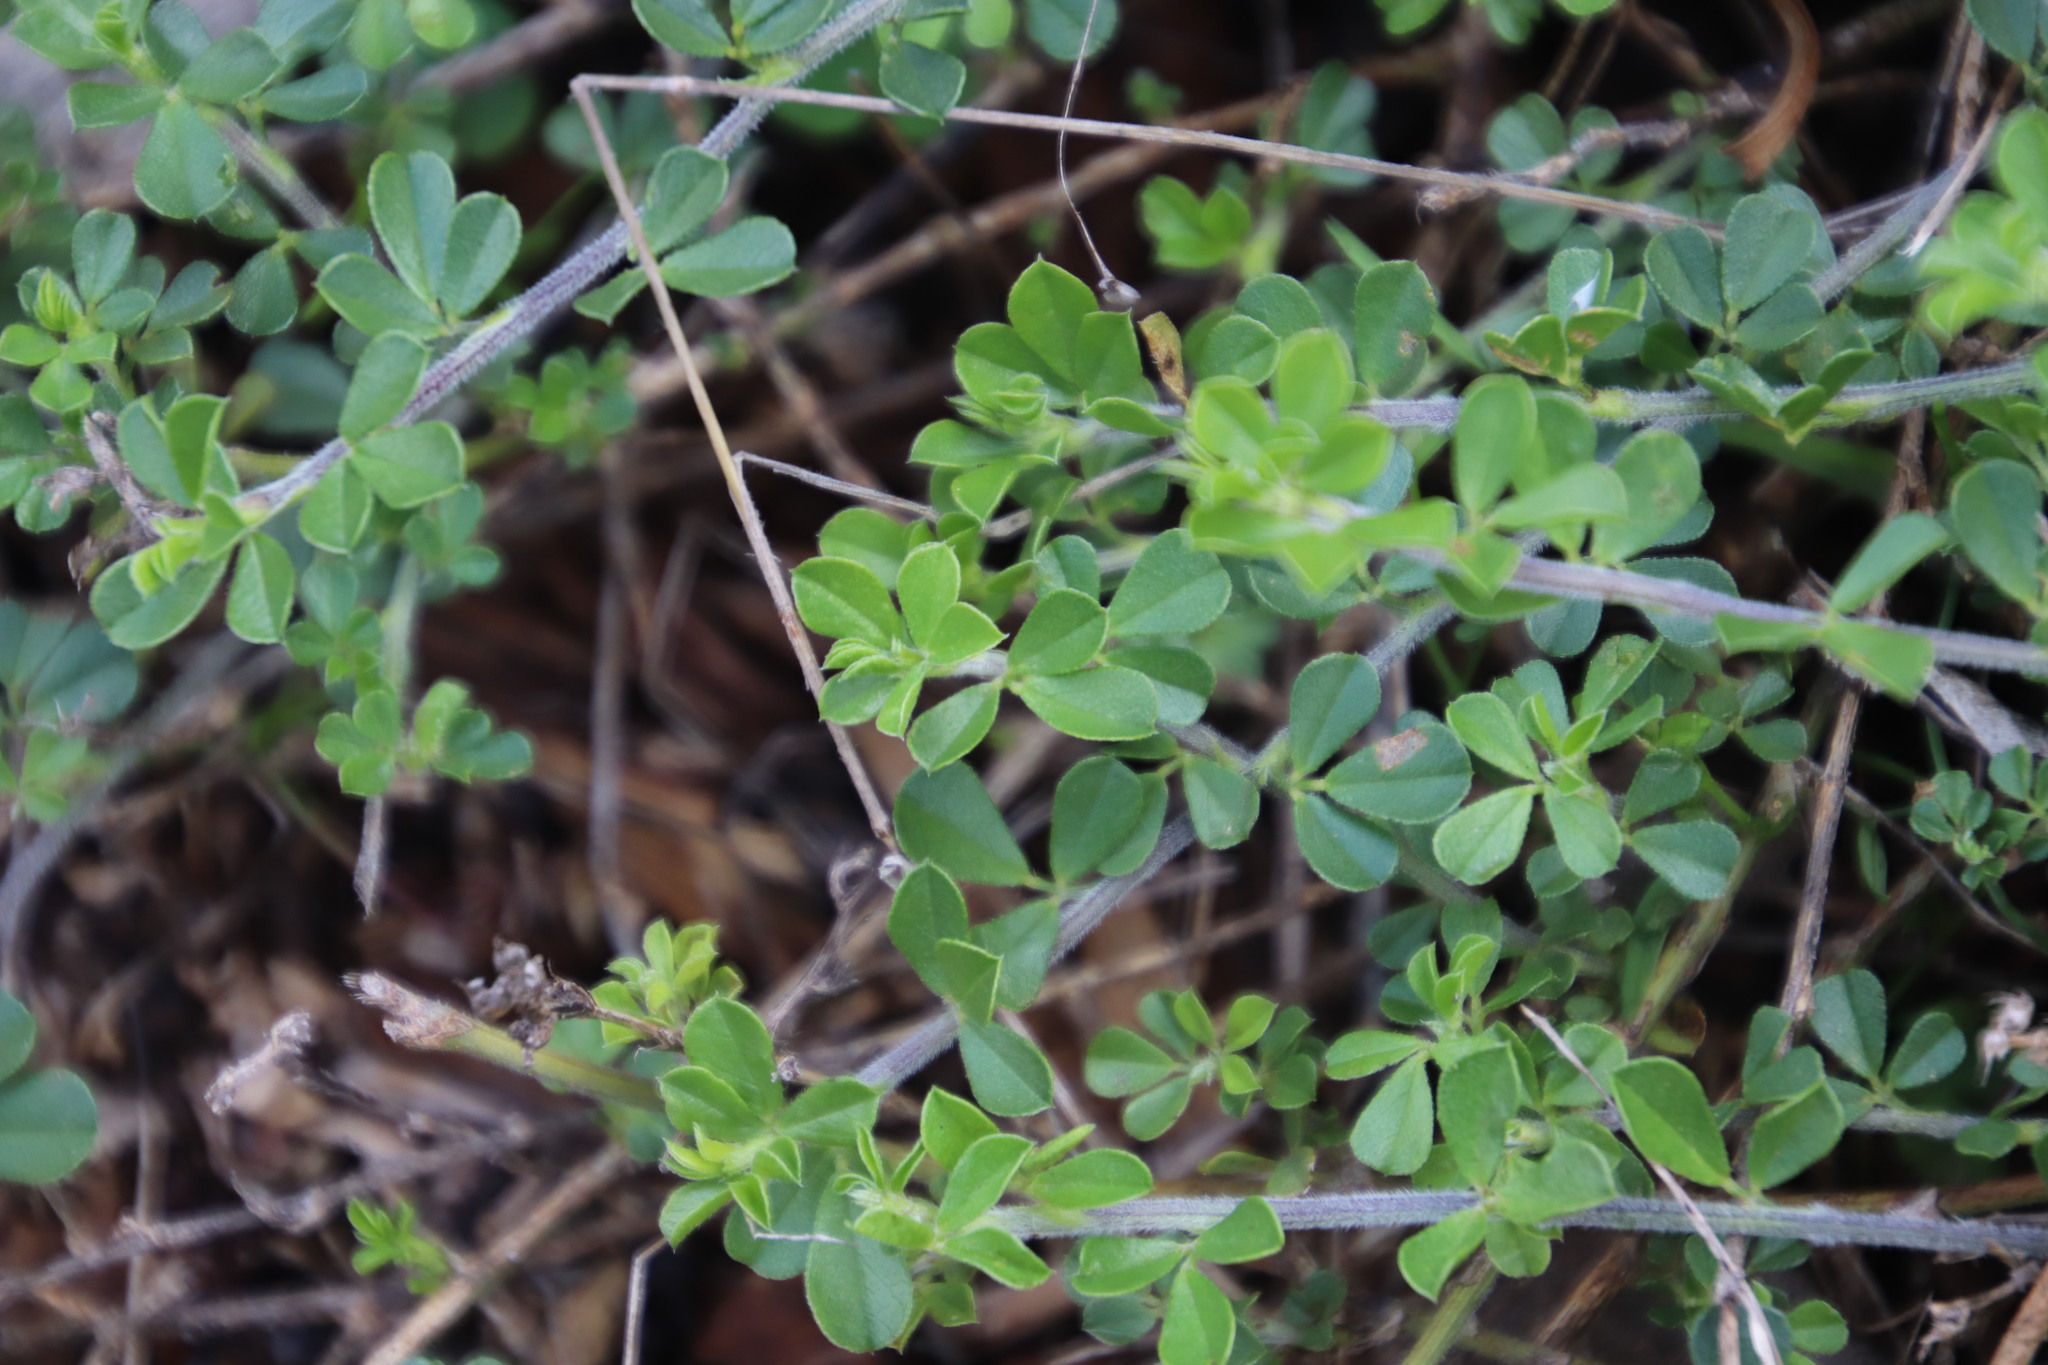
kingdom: Plantae
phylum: Tracheophyta
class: Magnoliopsida
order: Fabales
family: Fabaceae
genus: Psoralea
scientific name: Psoralea
